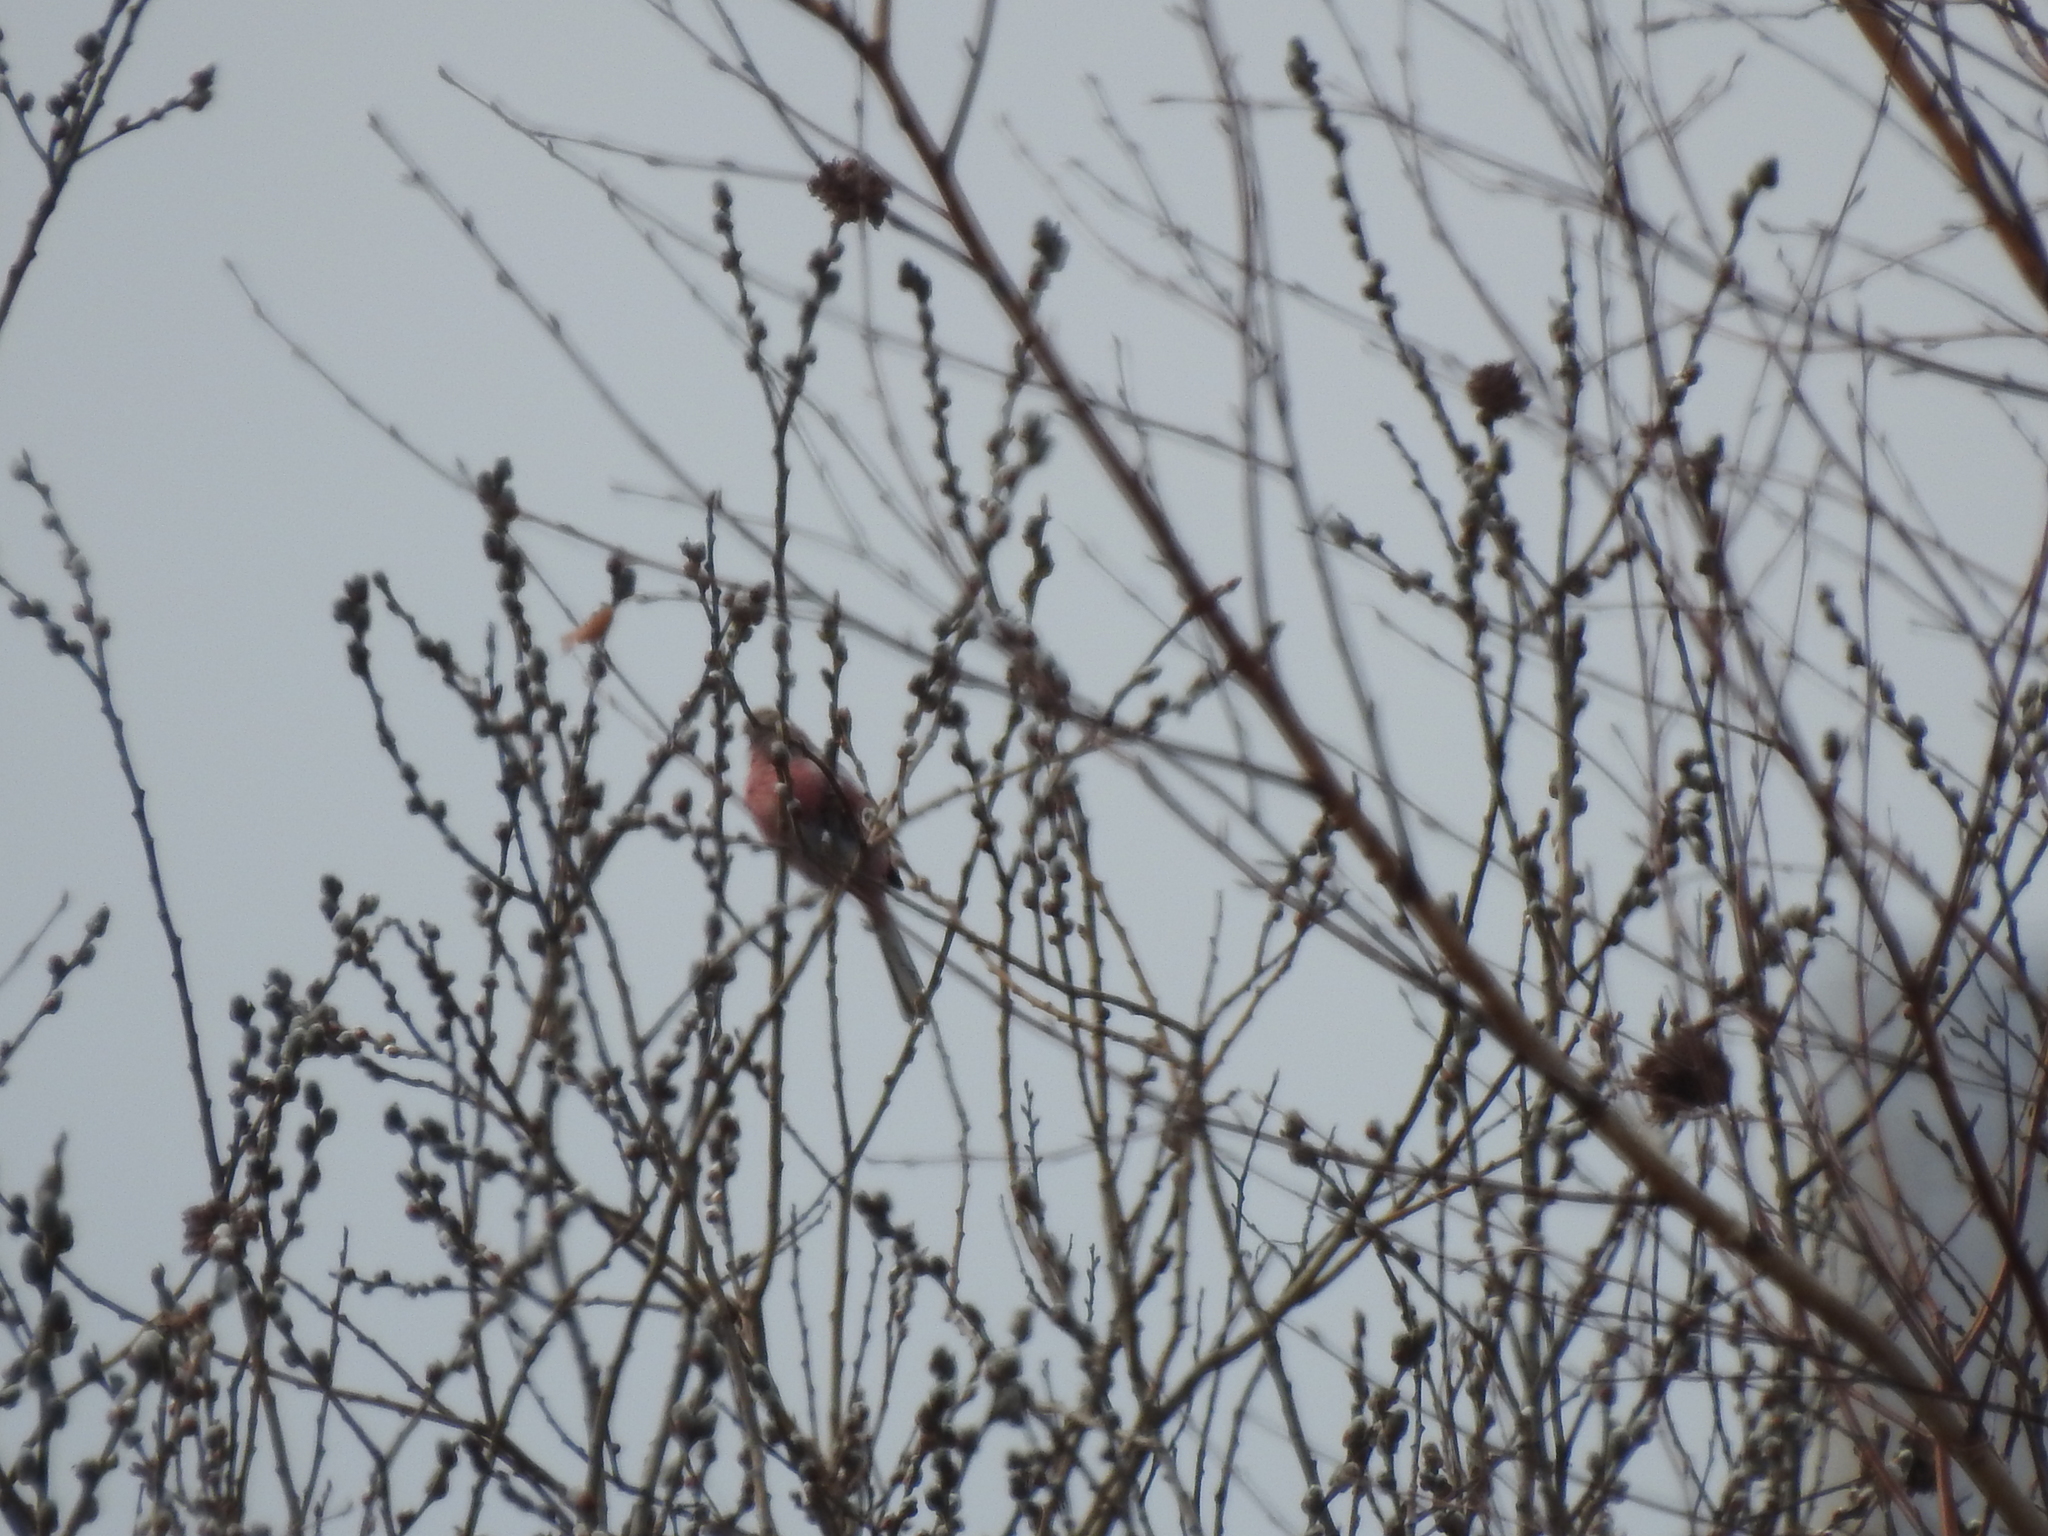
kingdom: Animalia
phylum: Chordata
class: Aves
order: Passeriformes
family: Fringillidae
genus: Carpodacus
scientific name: Carpodacus sibiricus
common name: Long-tailed rosefinch
